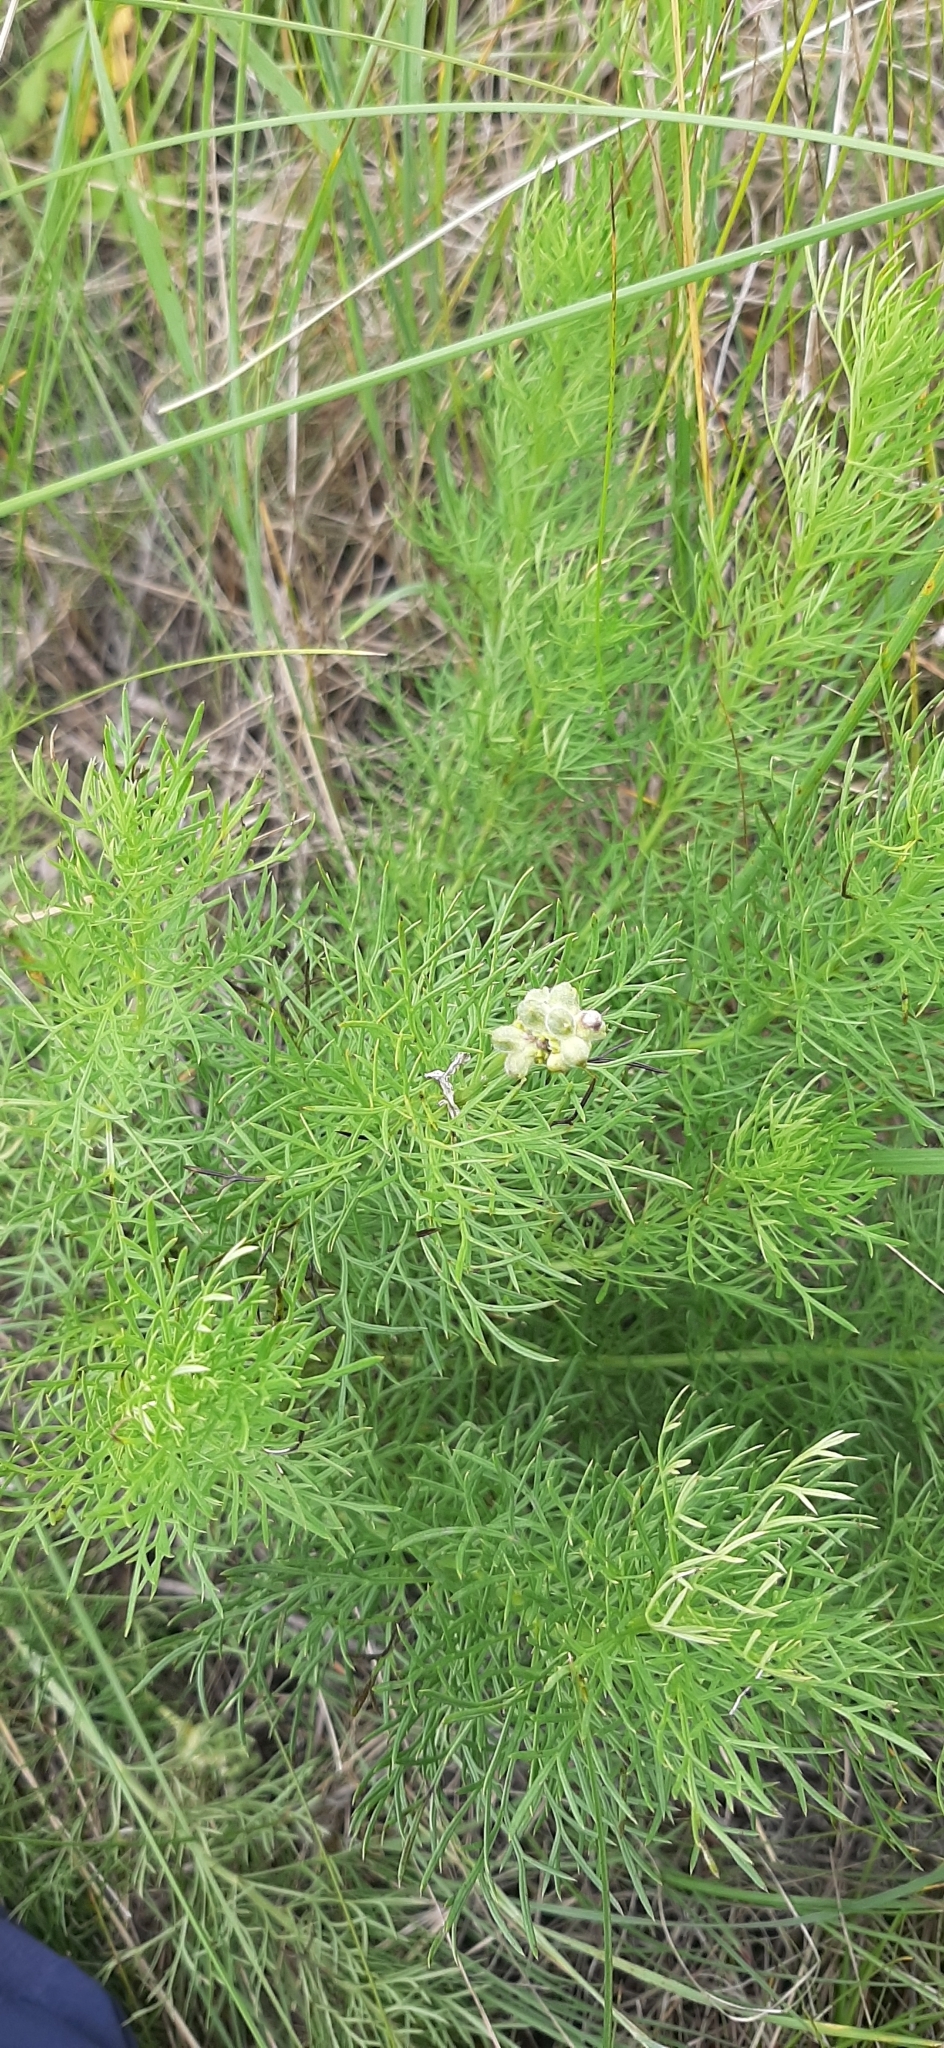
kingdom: Plantae
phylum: Tracheophyta
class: Magnoliopsida
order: Ranunculales
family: Ranunculaceae
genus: Adonis
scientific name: Adonis vernalis
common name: Yellow pheasants-eye
